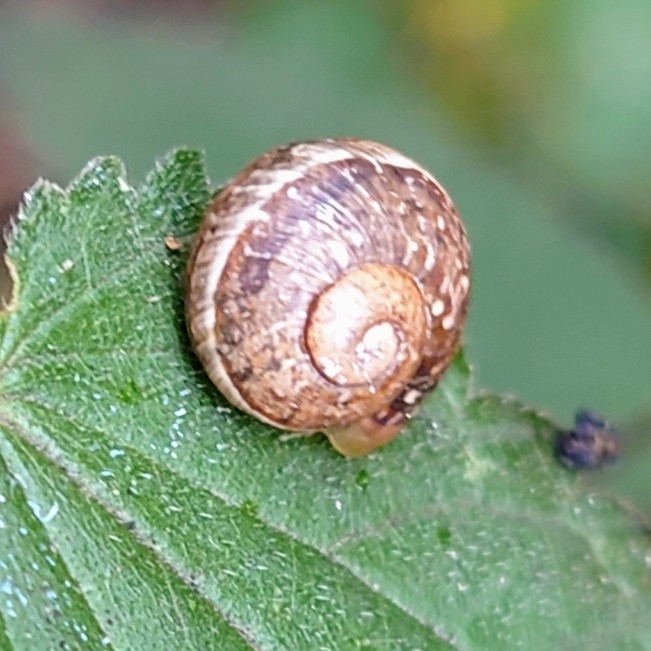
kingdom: Animalia
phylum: Mollusca
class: Gastropoda
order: Stylommatophora
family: Helicidae
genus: Cornu
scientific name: Cornu aspersum
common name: Brown garden snail
